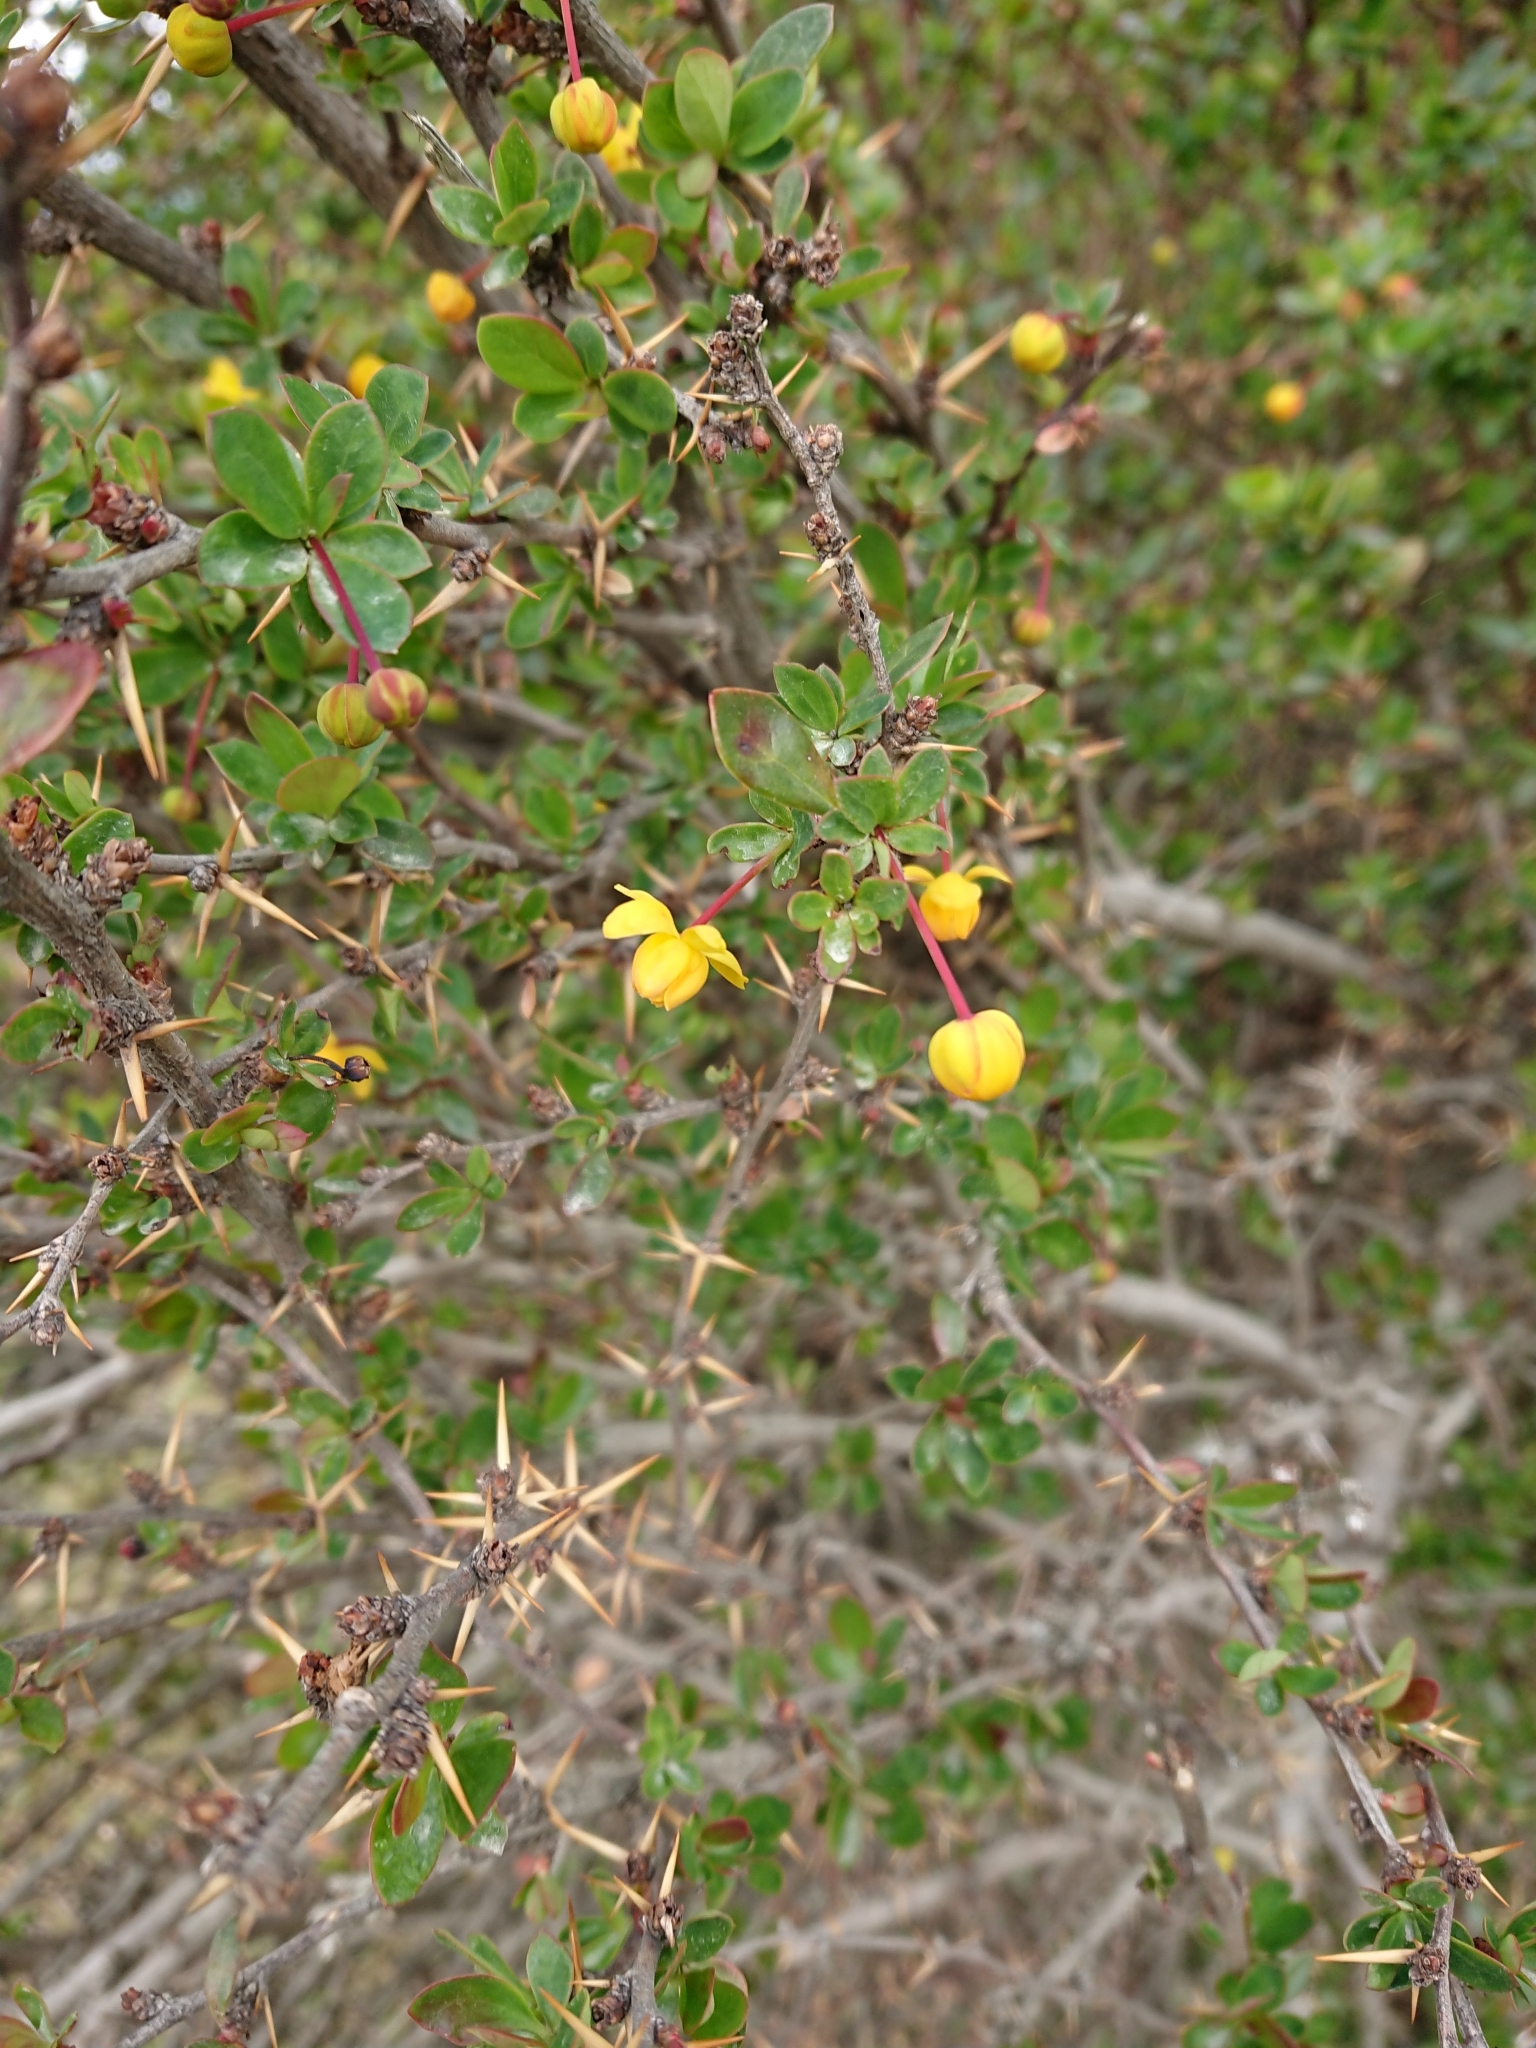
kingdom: Plantae
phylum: Tracheophyta
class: Magnoliopsida
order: Ranunculales
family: Berberidaceae
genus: Berberis
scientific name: Berberis microphylla
